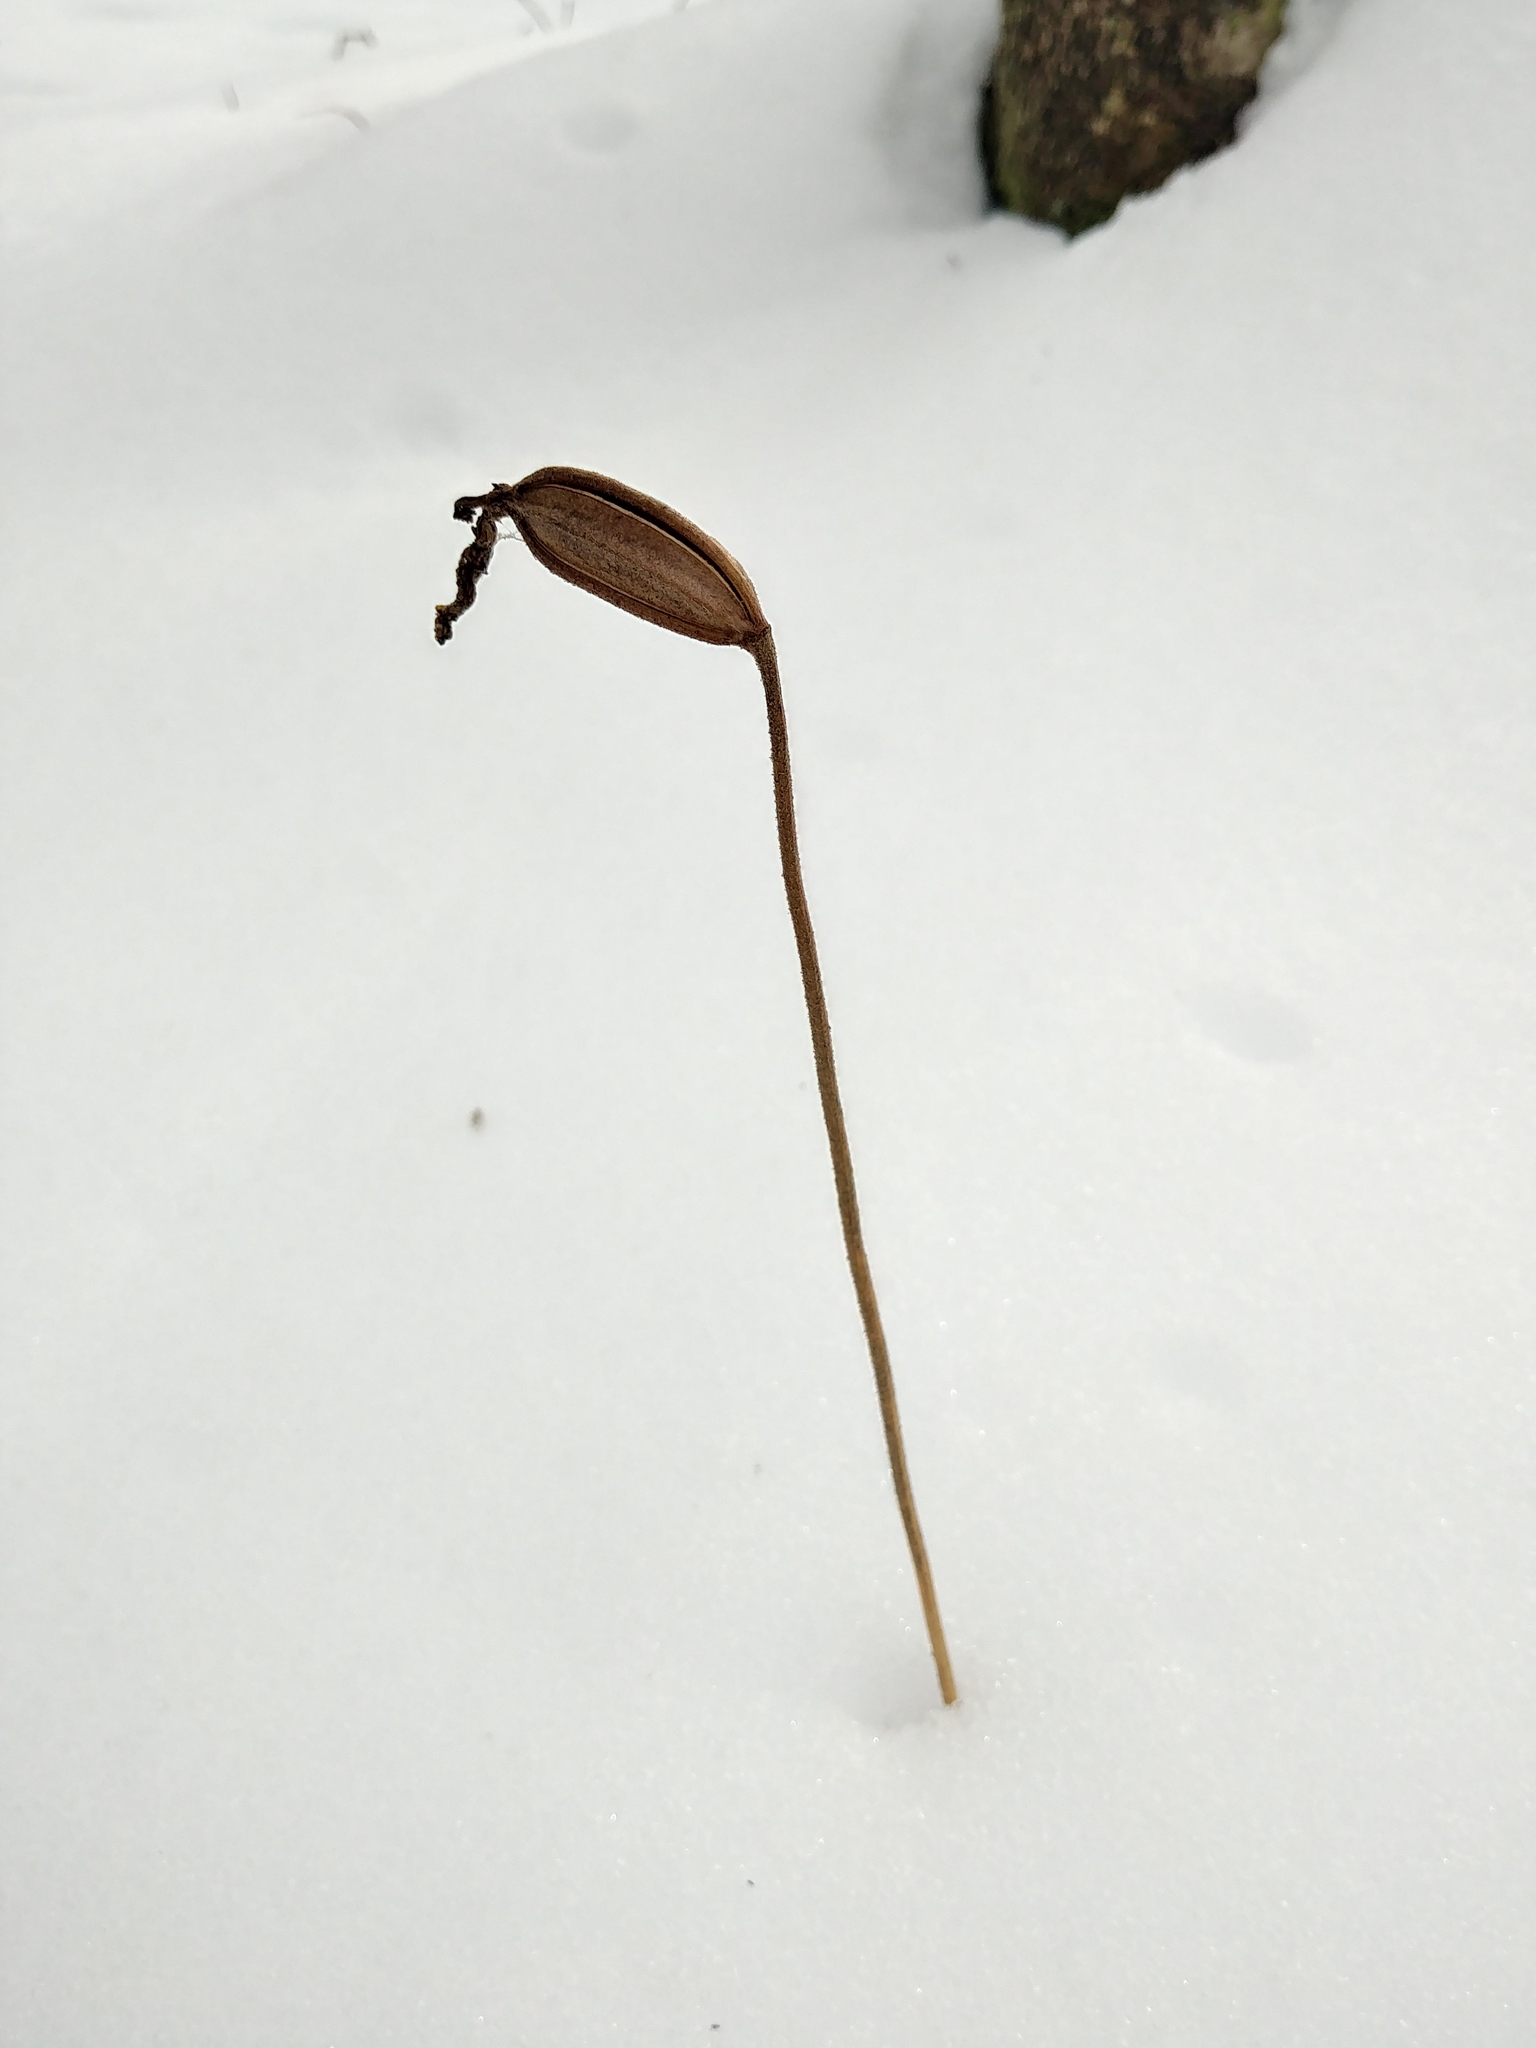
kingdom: Plantae
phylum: Tracheophyta
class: Liliopsida
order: Asparagales
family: Orchidaceae
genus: Cypripedium
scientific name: Cypripedium acaule
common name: Pink lady's-slipper
